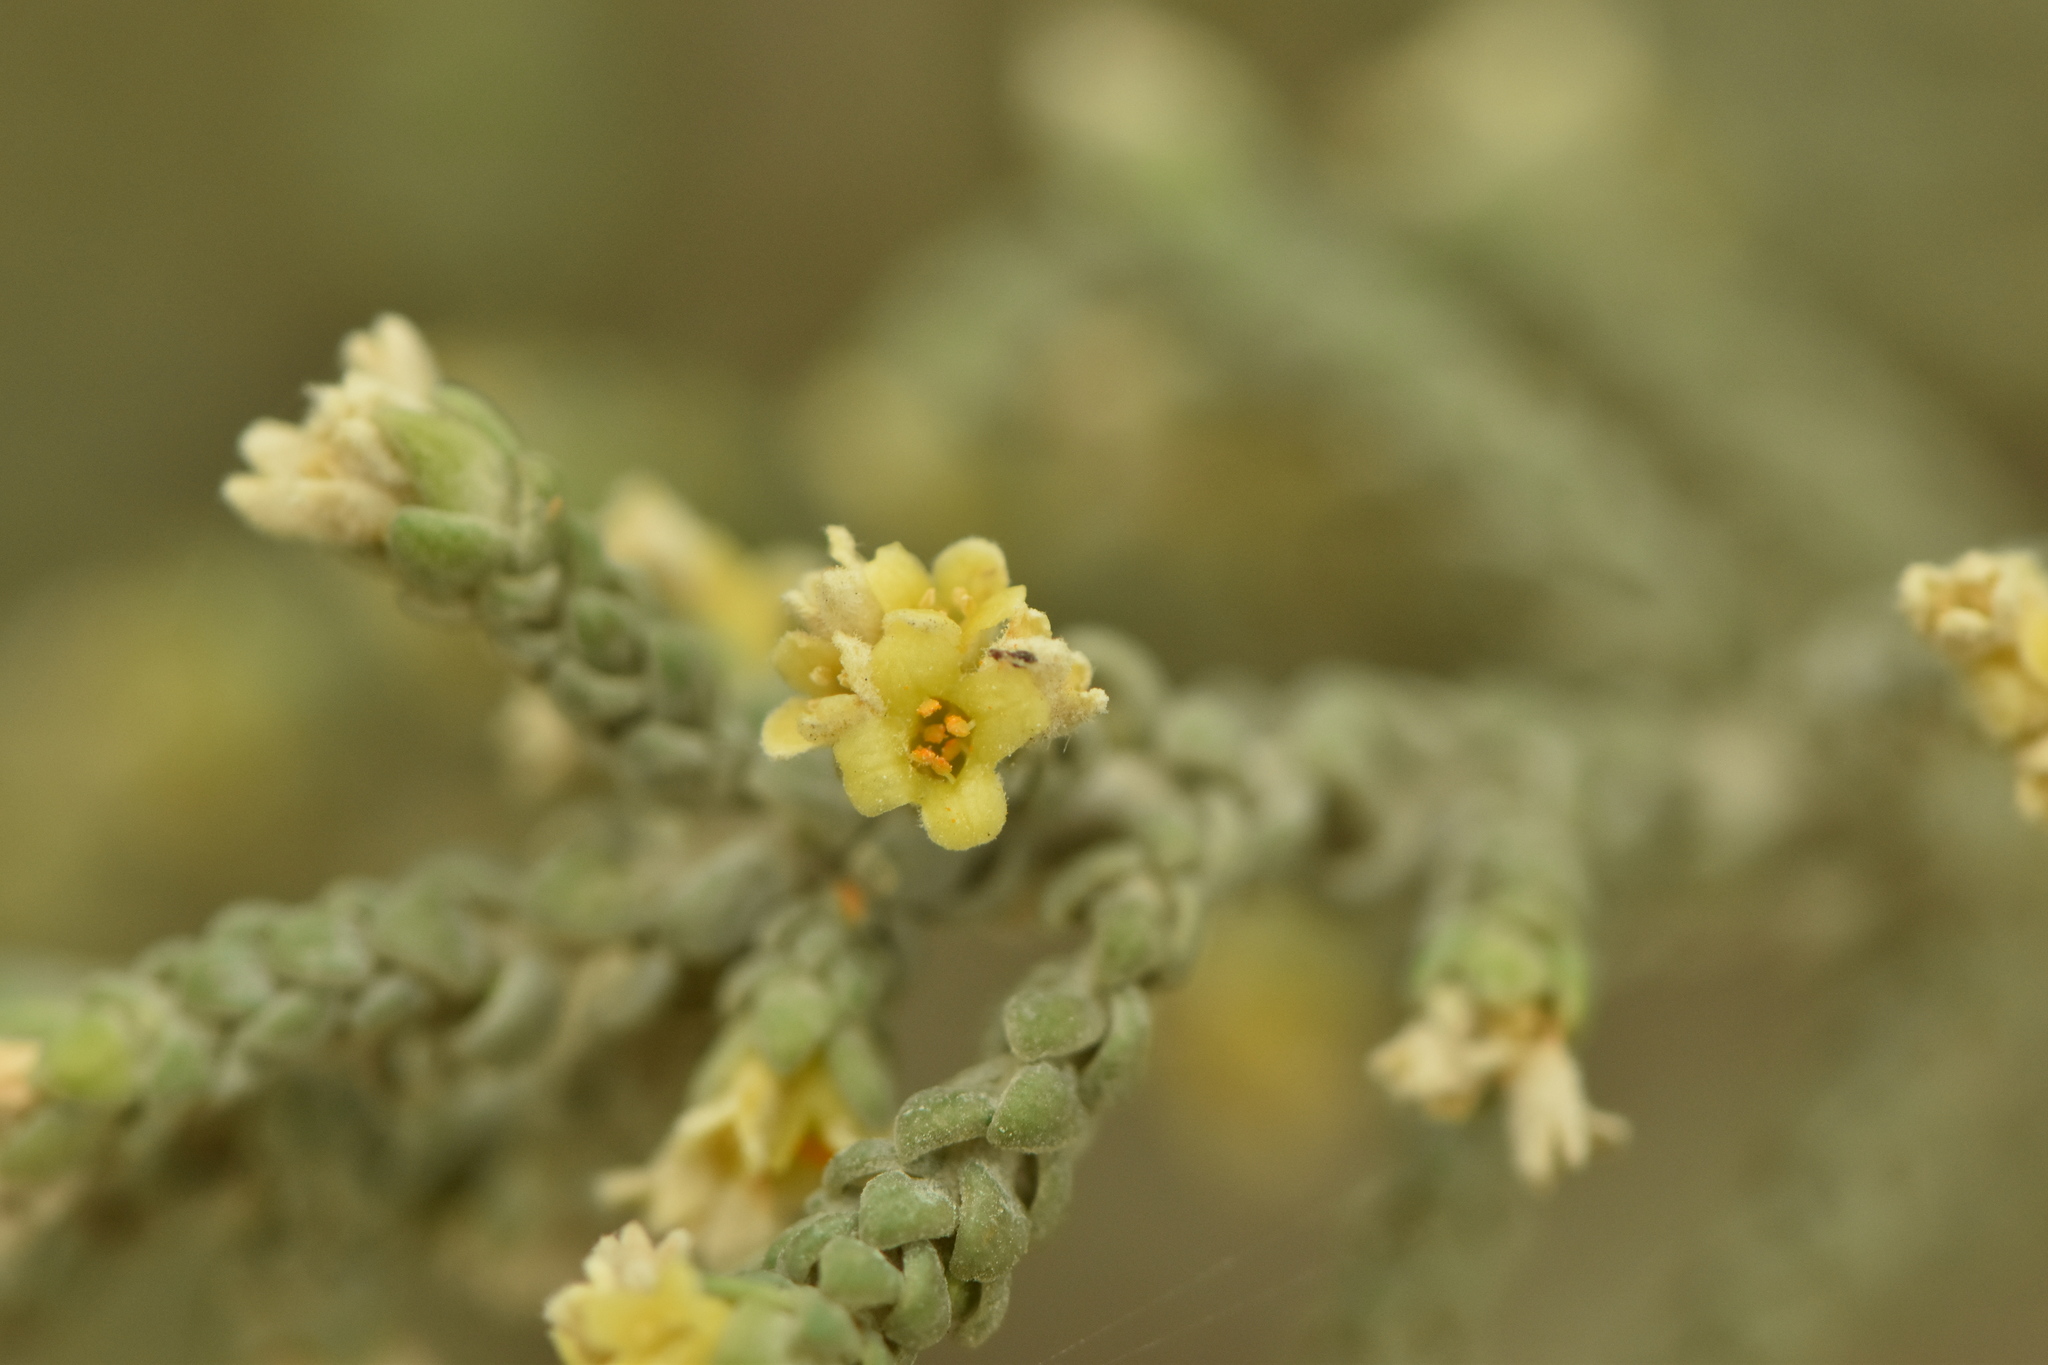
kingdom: Plantae
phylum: Tracheophyta
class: Magnoliopsida
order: Malvales
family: Thymelaeaceae
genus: Thymelaea
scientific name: Thymelaea hirsuta
